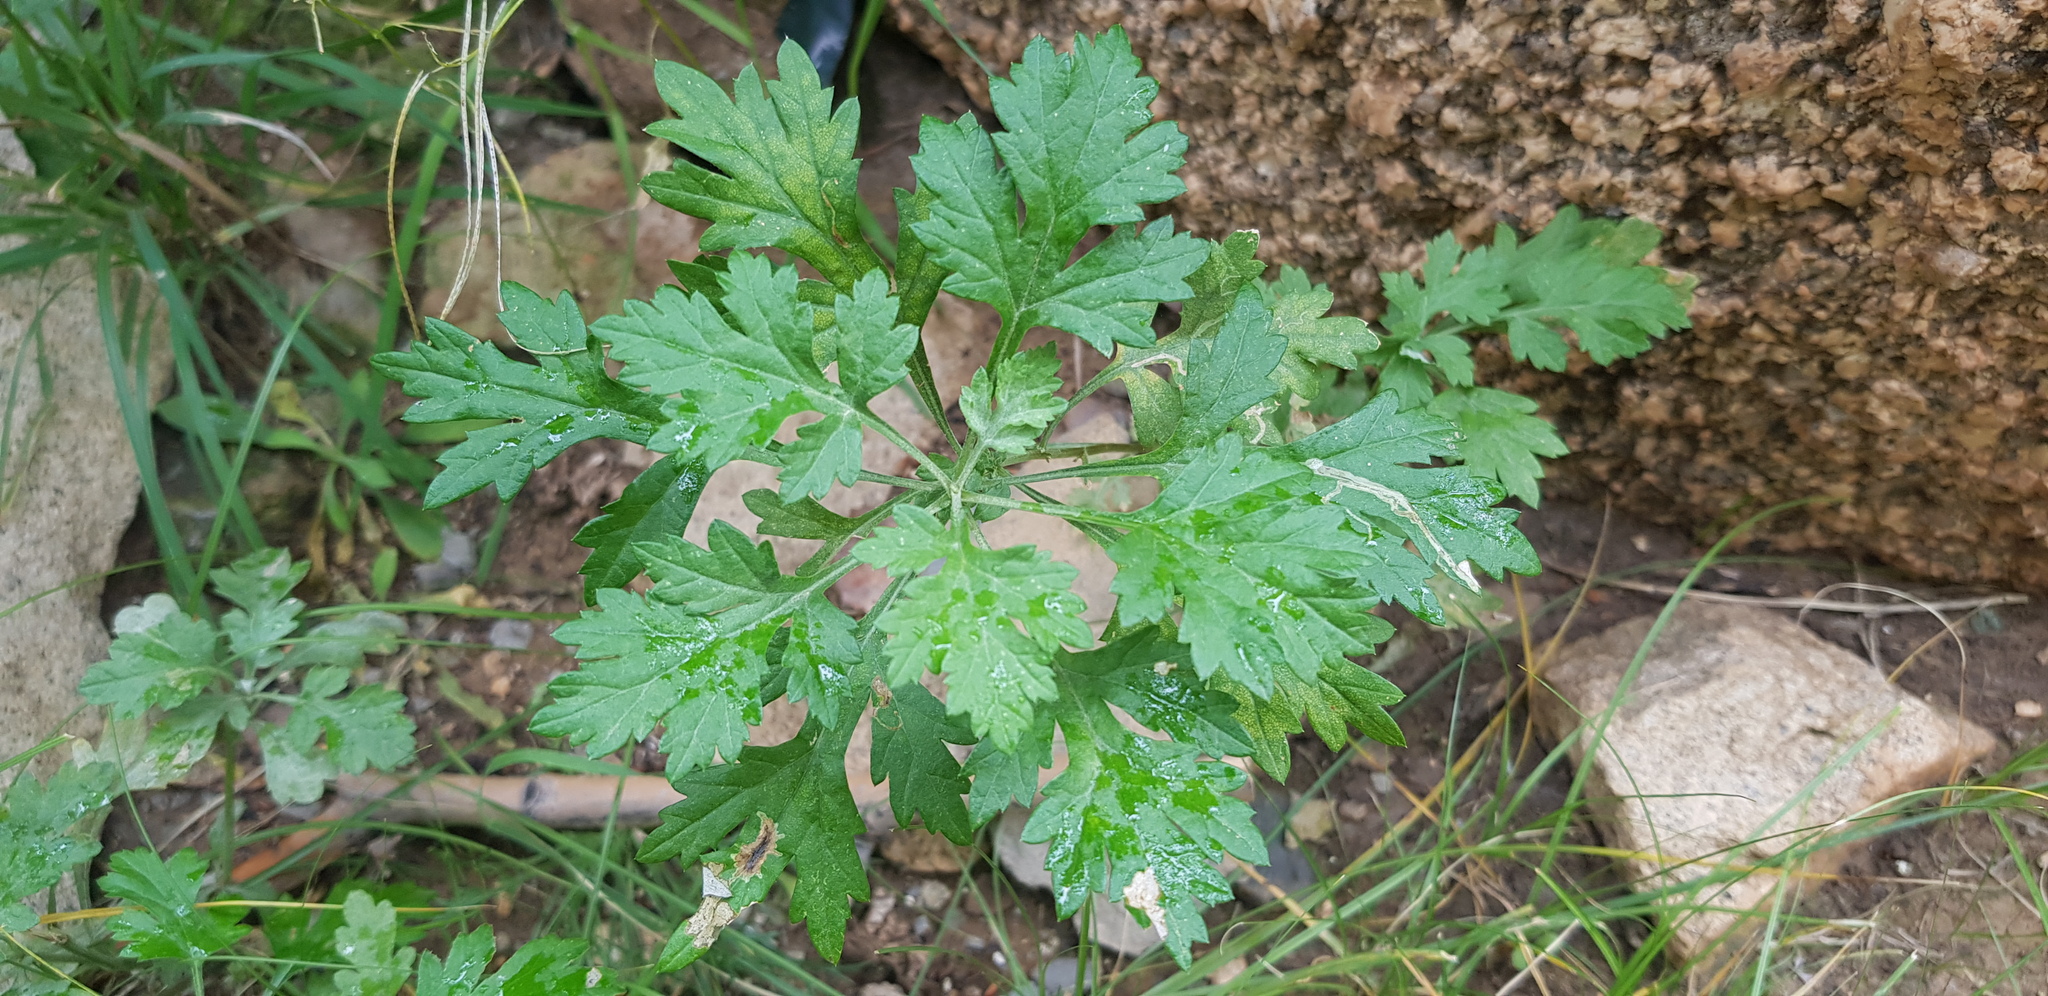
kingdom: Plantae
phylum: Tracheophyta
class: Magnoliopsida
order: Asterales
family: Asteraceae
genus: Artemisia
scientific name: Artemisia vulgaris
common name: Mugwort
